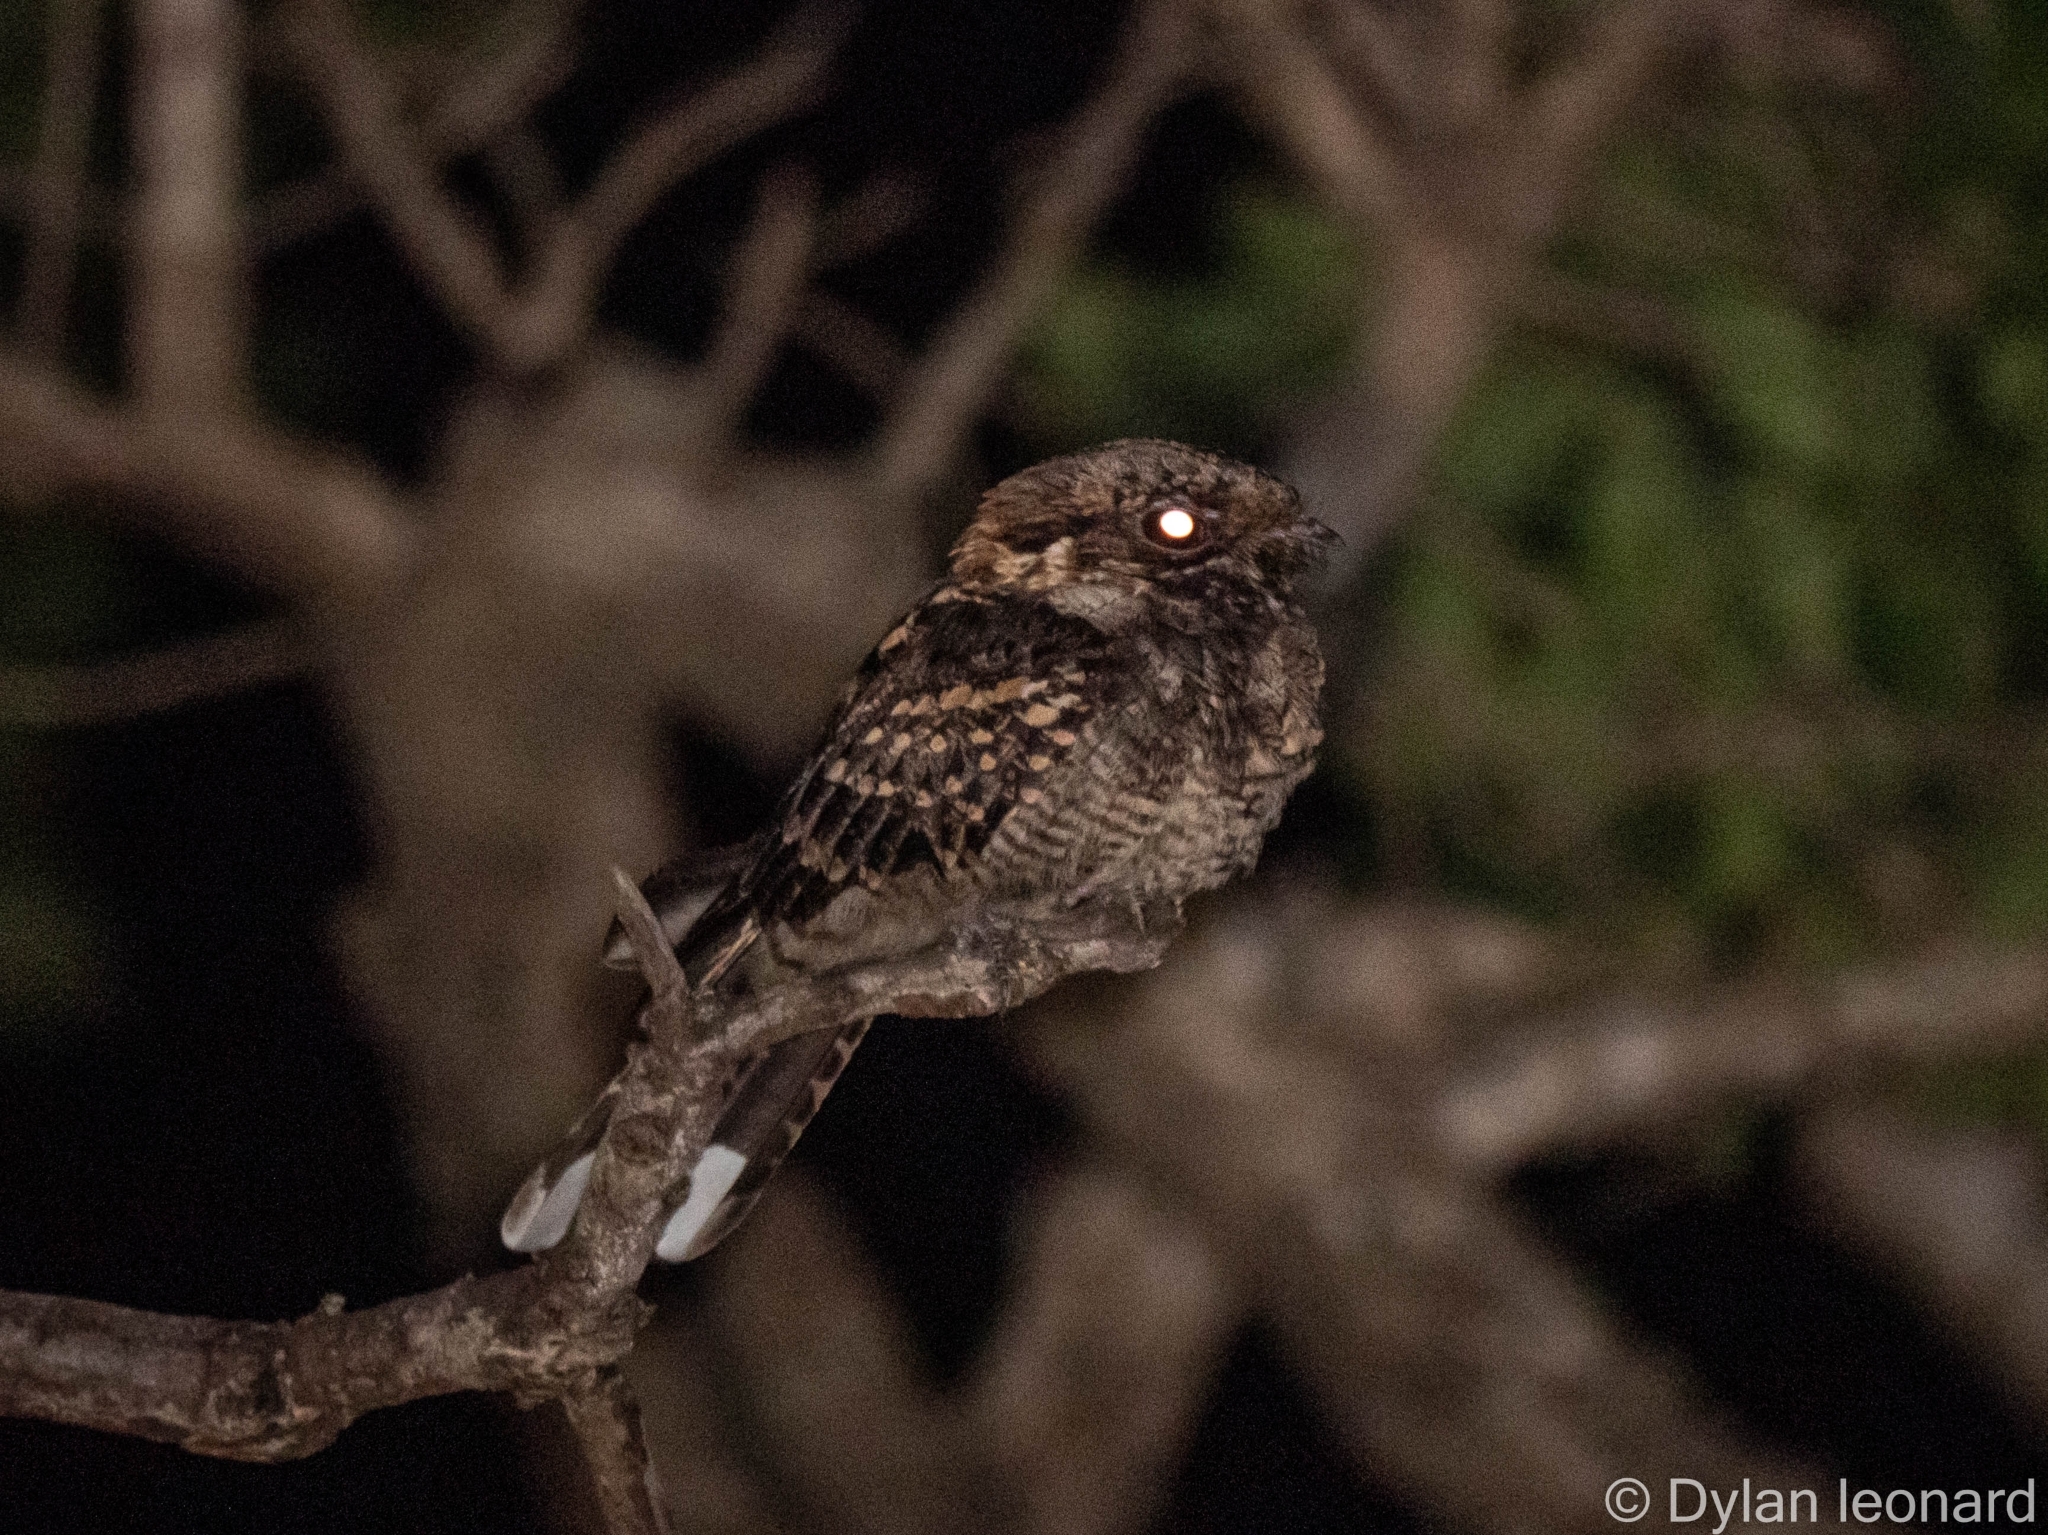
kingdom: Animalia
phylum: Chordata
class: Aves
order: Caprimulgiformes
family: Caprimulgidae
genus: Caprimulgus
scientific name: Caprimulgus pectoralis
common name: Fiery-necked nightjar
